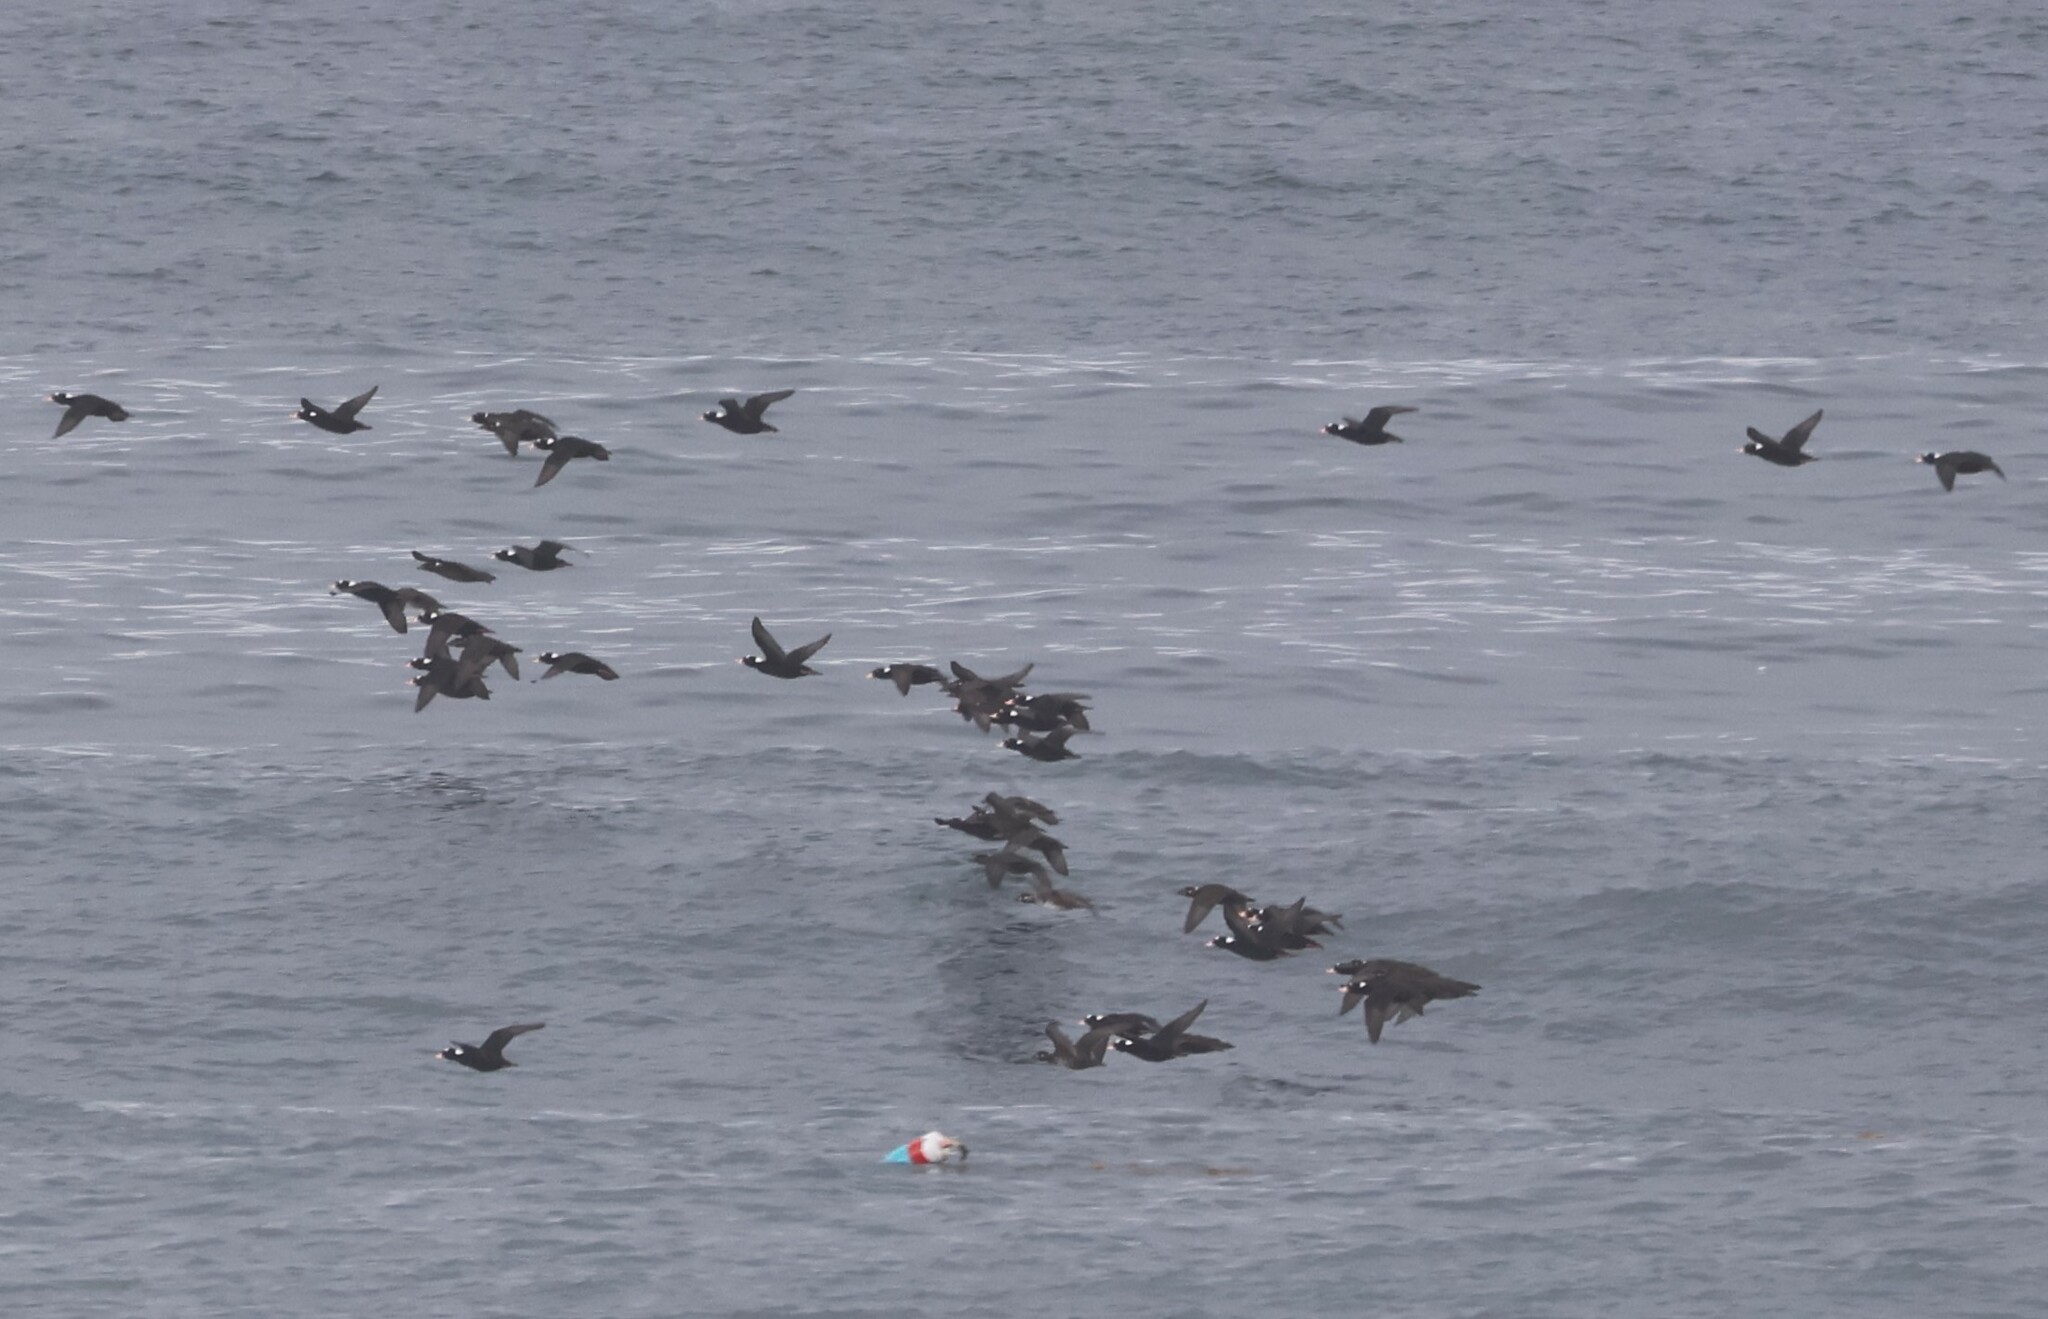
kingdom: Animalia
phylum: Chordata
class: Aves
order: Anseriformes
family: Anatidae
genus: Melanitta
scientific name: Melanitta perspicillata
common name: Surf scoter
